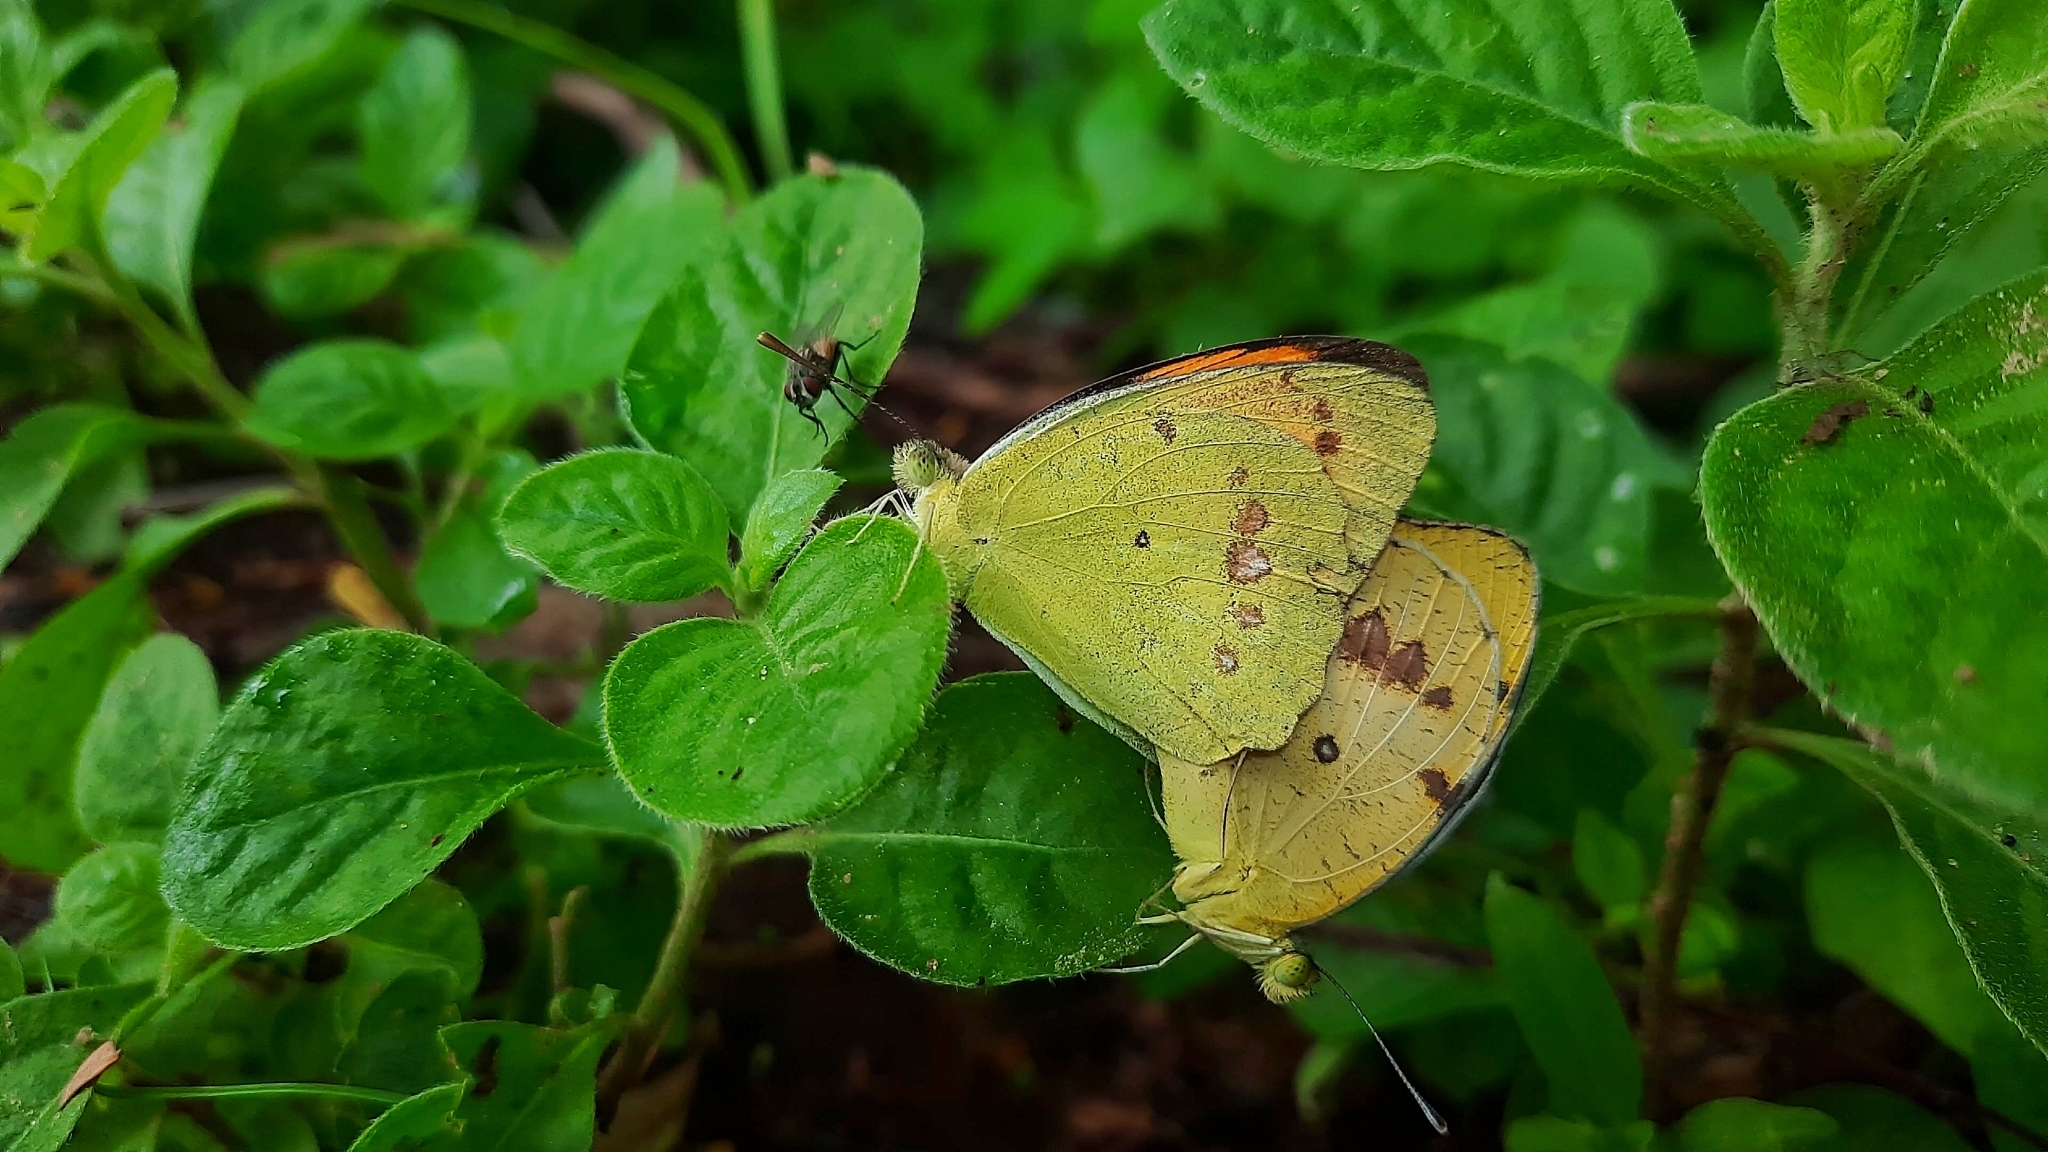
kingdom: Animalia
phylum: Arthropoda
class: Insecta
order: Lepidoptera
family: Pieridae
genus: Ixias
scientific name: Ixias marianne
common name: White orange tip
